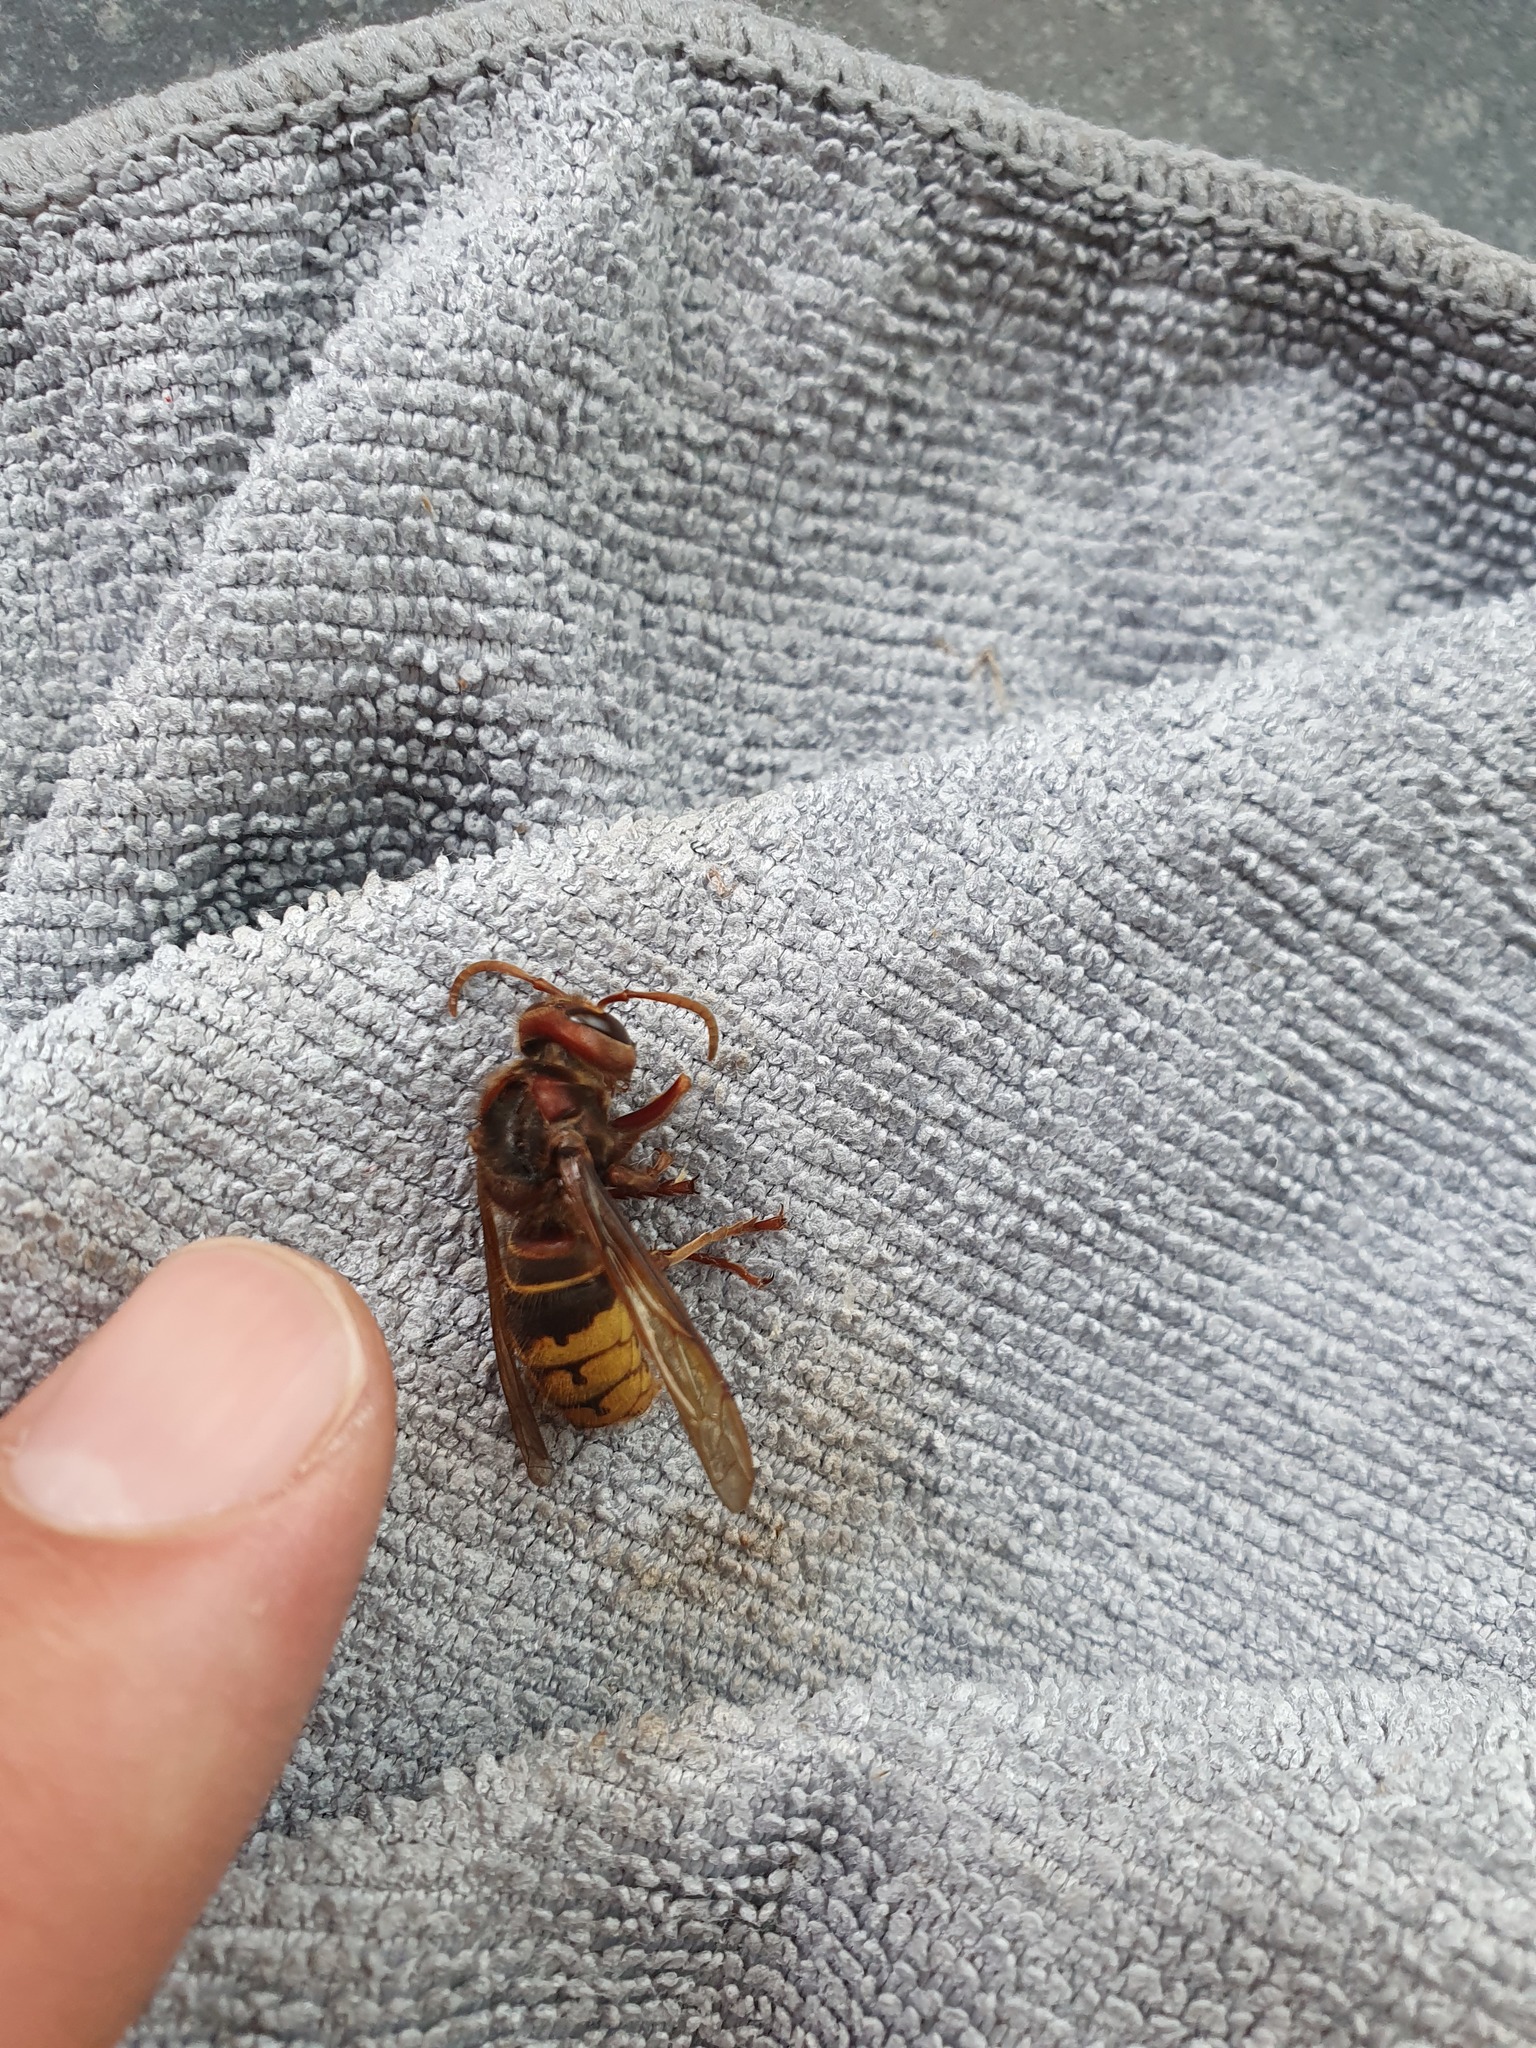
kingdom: Animalia
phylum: Arthropoda
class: Insecta
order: Hymenoptera
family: Vespidae
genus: Vespa
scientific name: Vespa crabro
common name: Hornet
